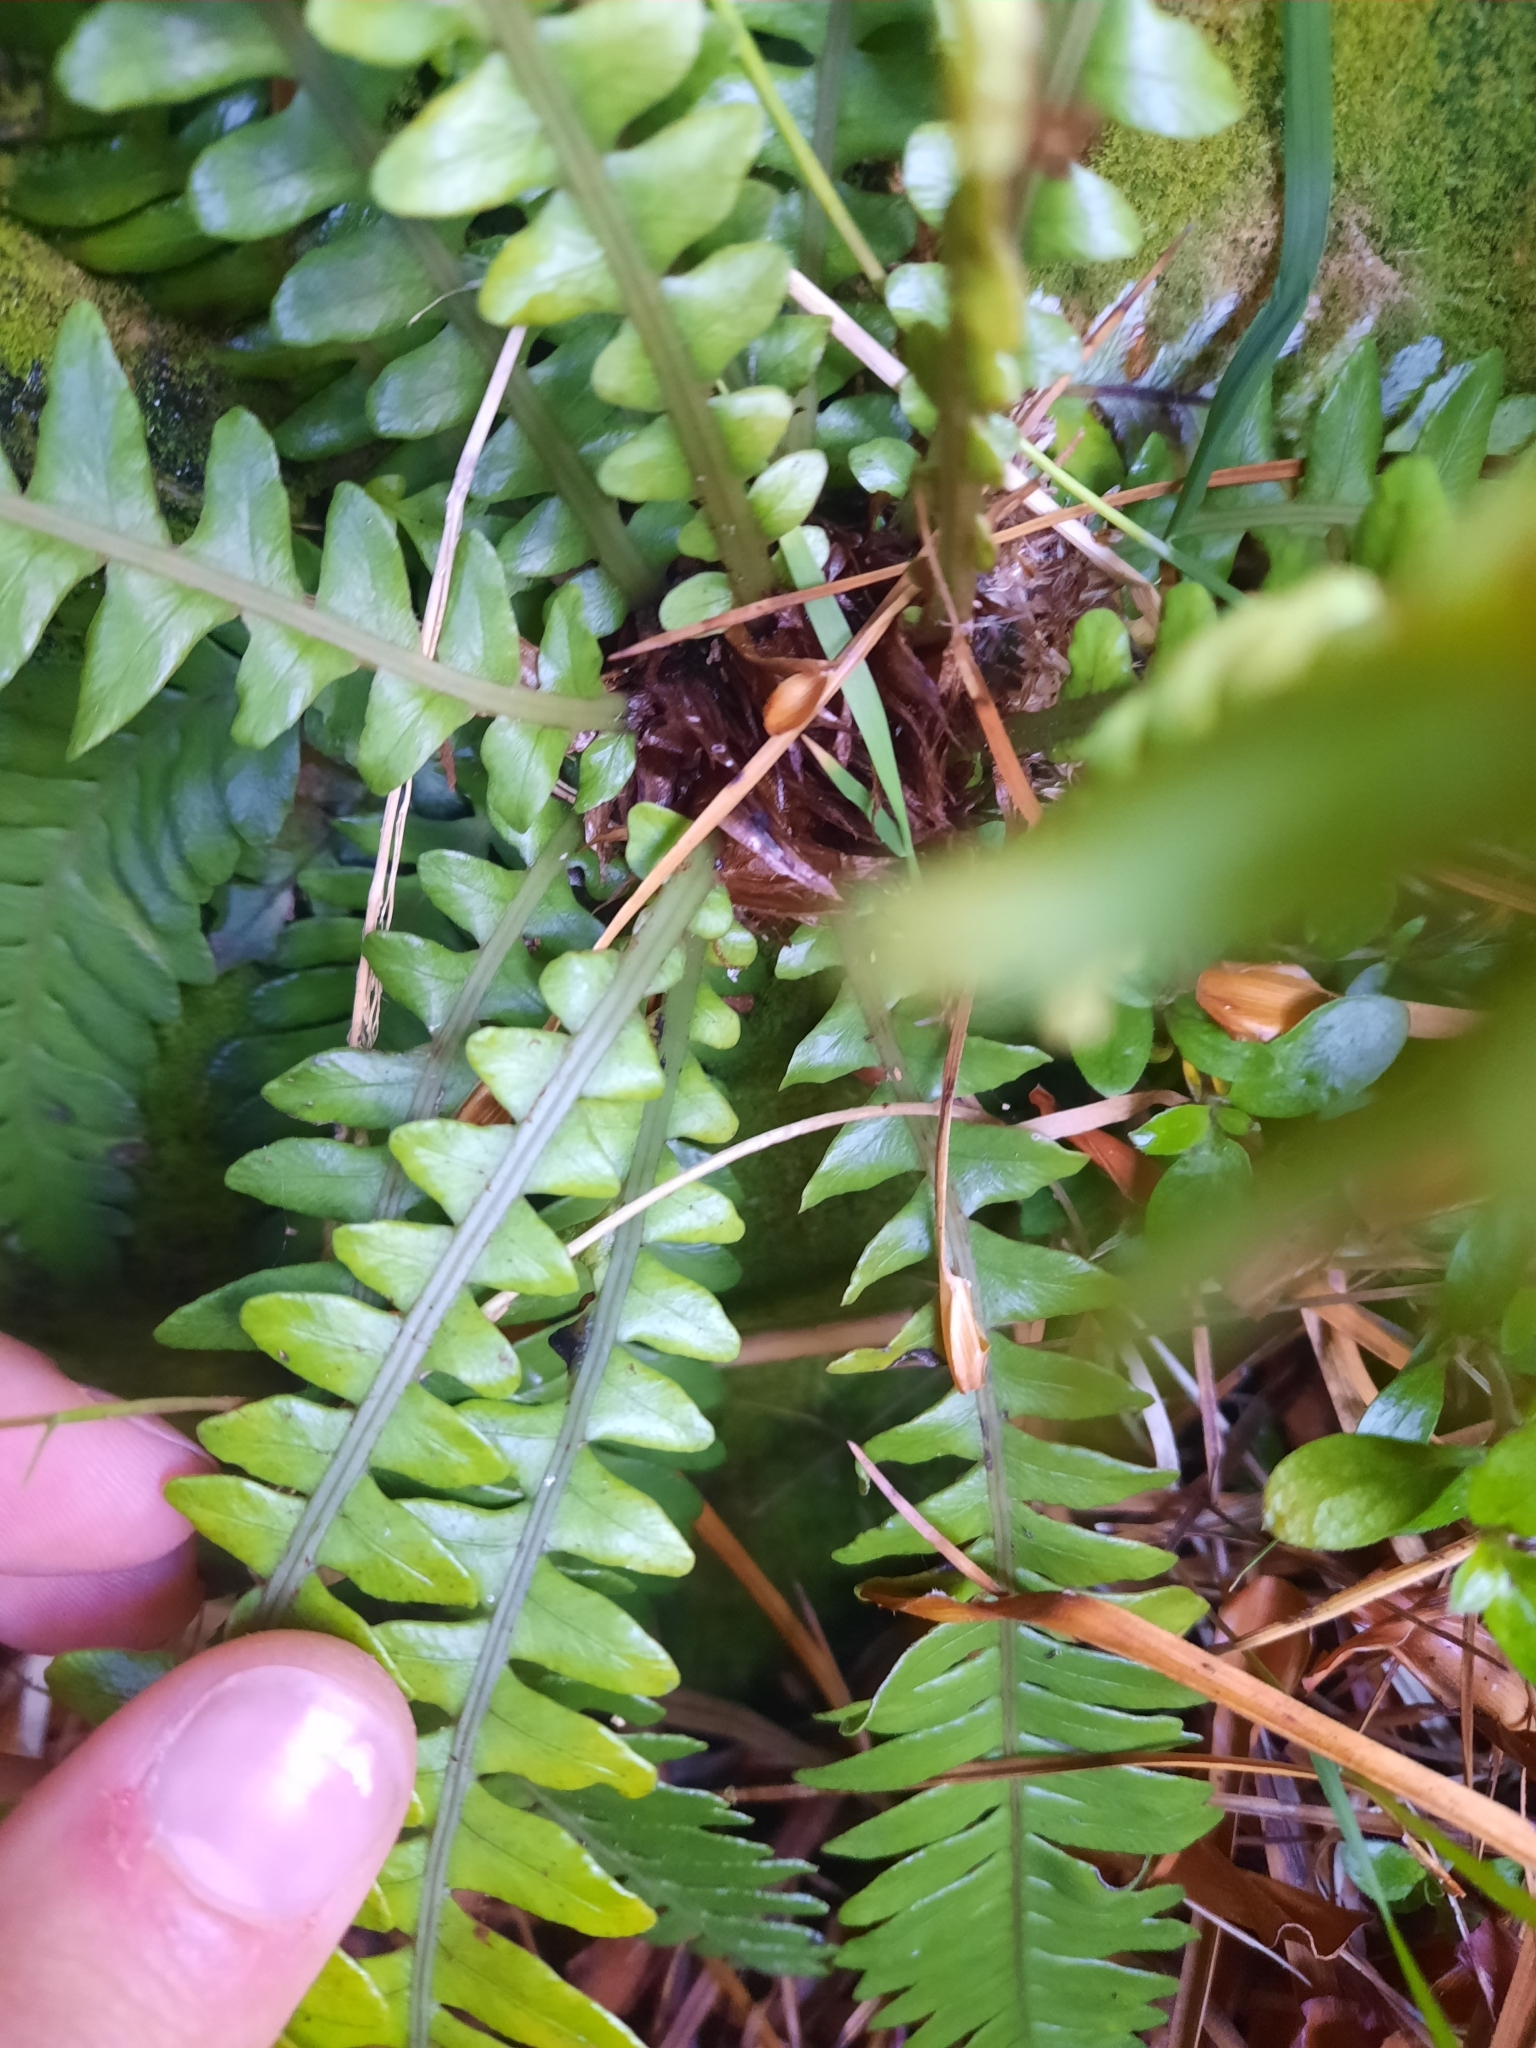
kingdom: Plantae
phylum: Tracheophyta
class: Polypodiopsida
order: Polypodiales
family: Blechnaceae
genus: Austroblechnum
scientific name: Austroblechnum durum
